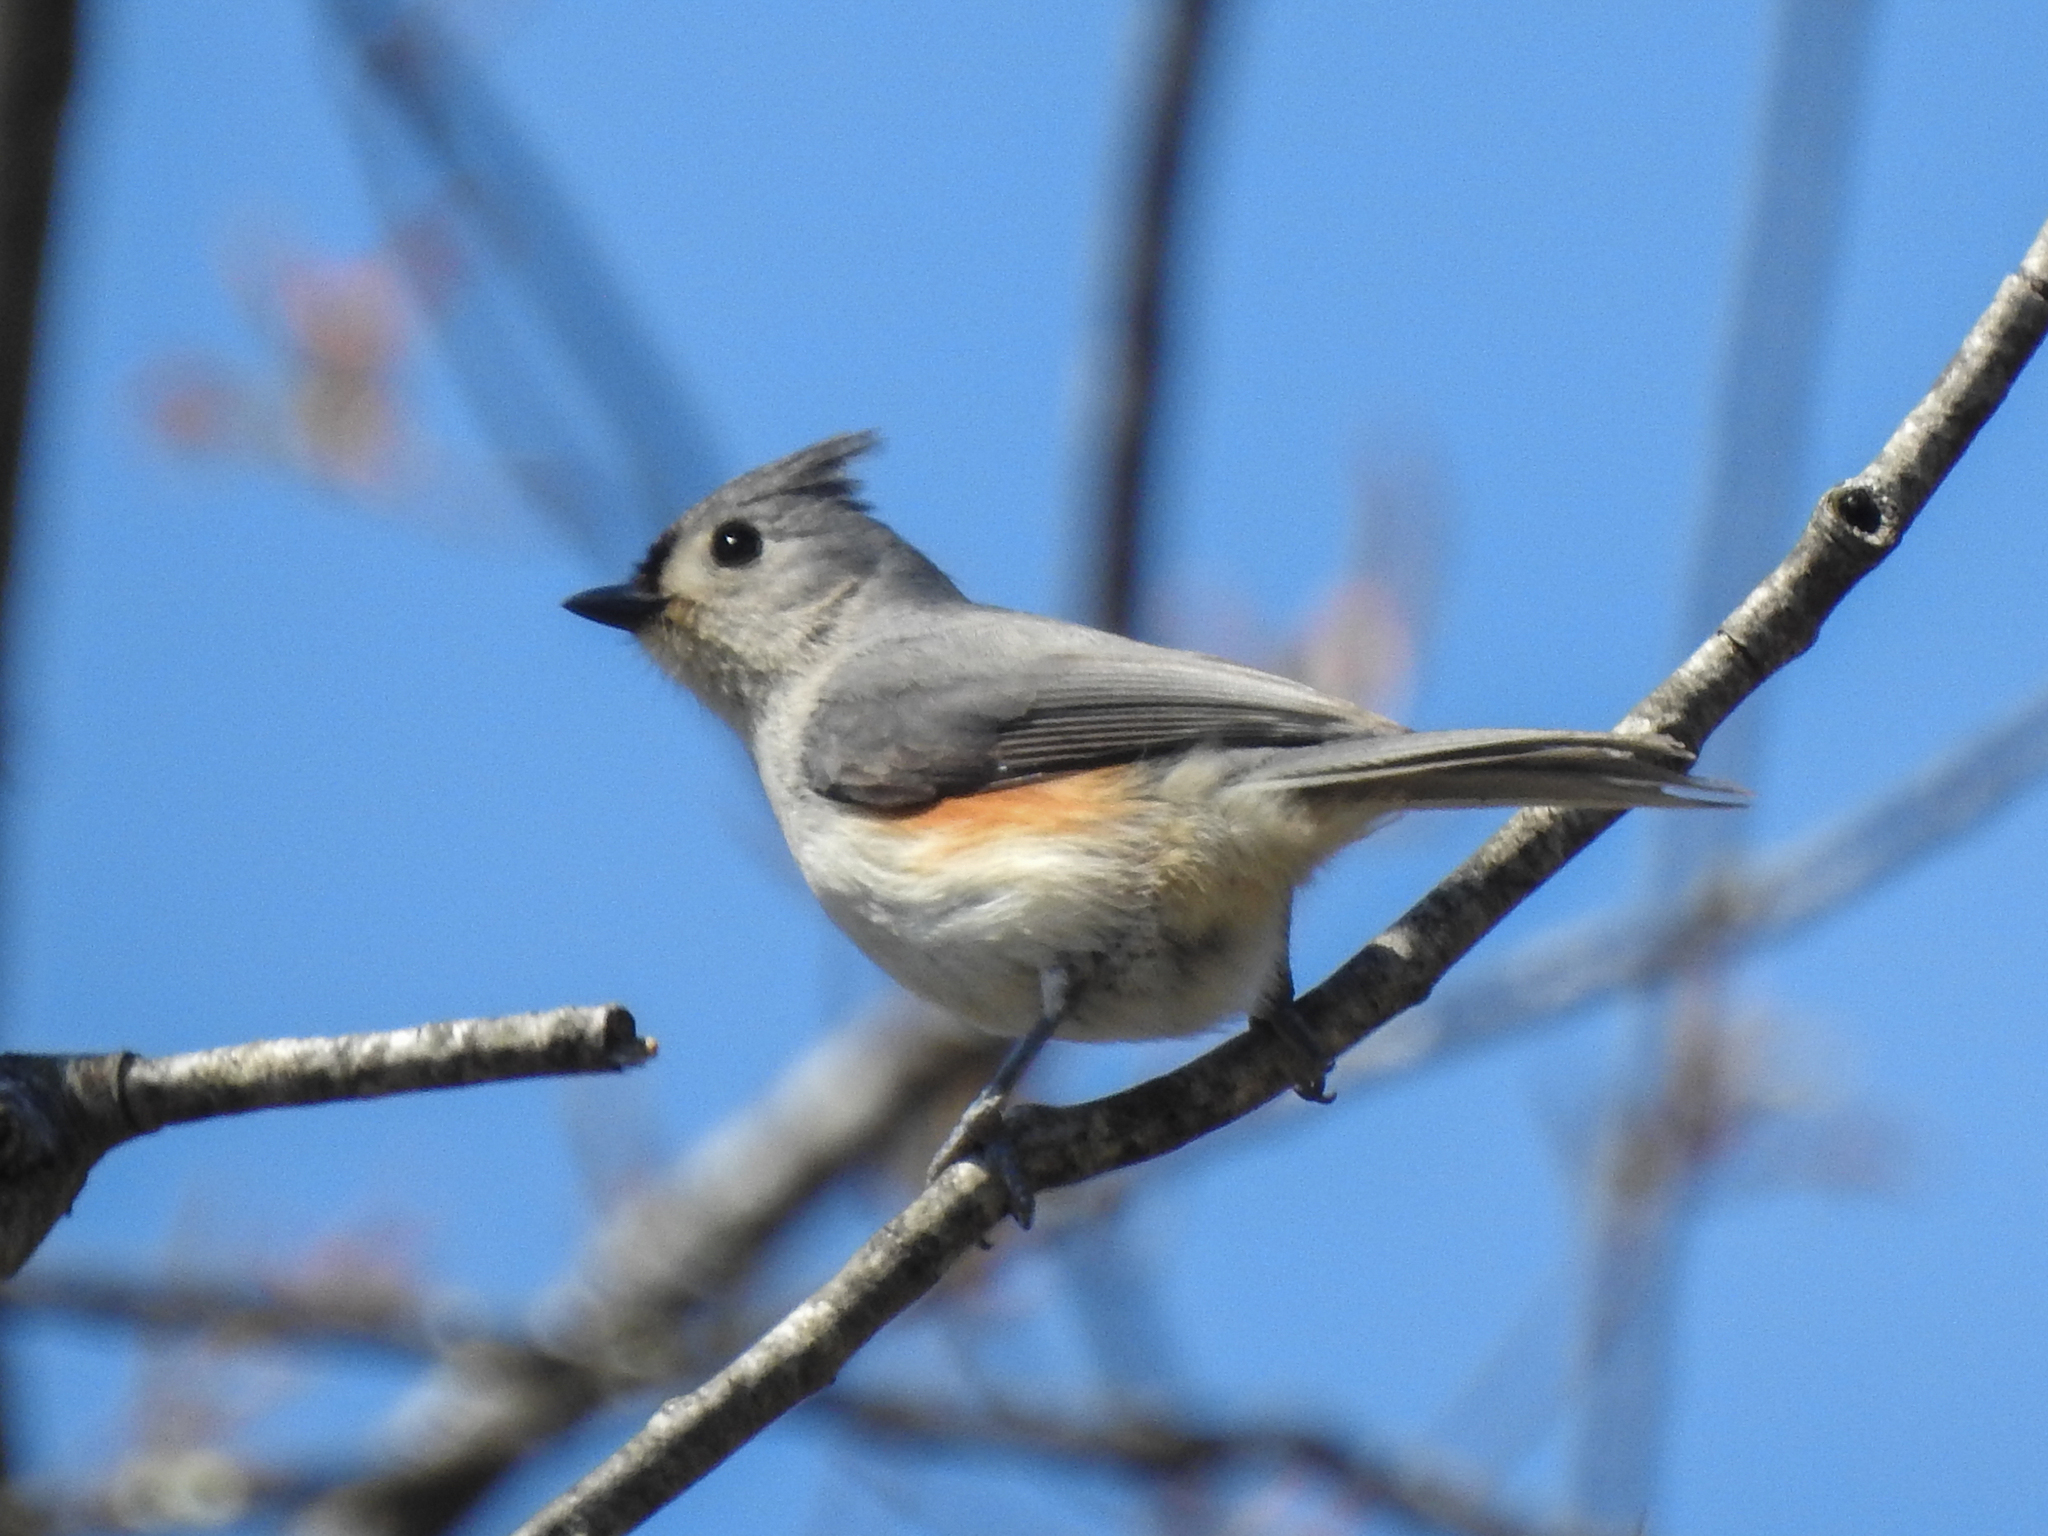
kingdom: Animalia
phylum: Chordata
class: Aves
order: Passeriformes
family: Paridae
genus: Baeolophus
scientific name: Baeolophus bicolor
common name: Tufted titmouse
